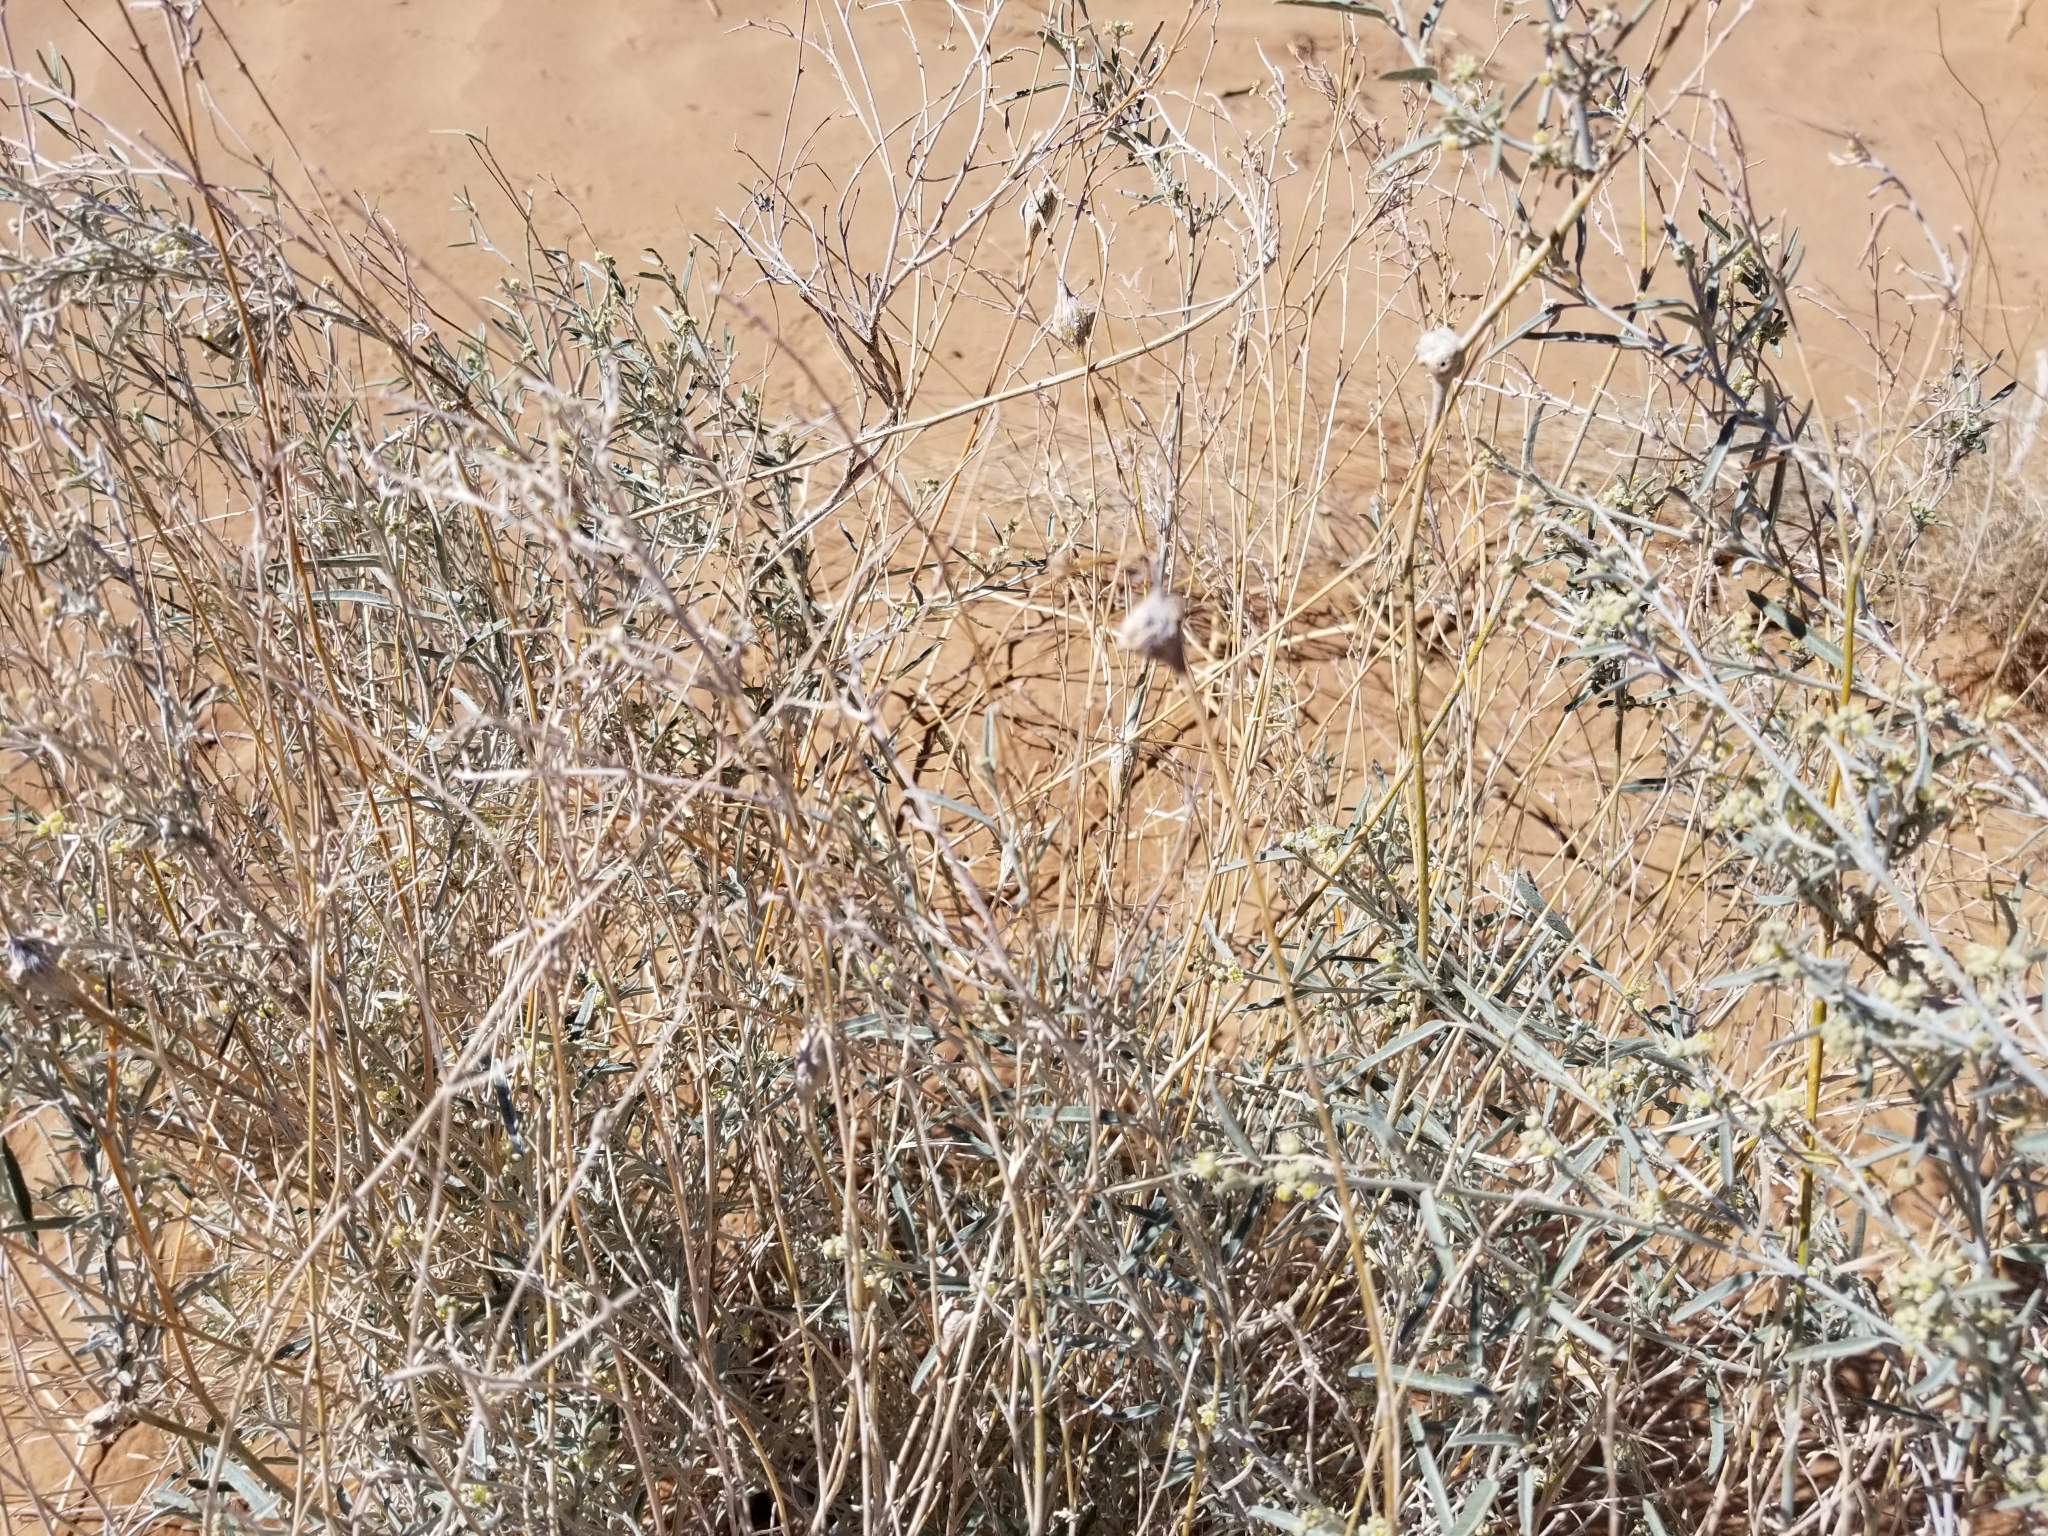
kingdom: Animalia
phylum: Arthropoda
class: Insecta
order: Diptera
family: Cecidomyiidae
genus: Asphondylia
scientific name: Asphondylia floccosa
